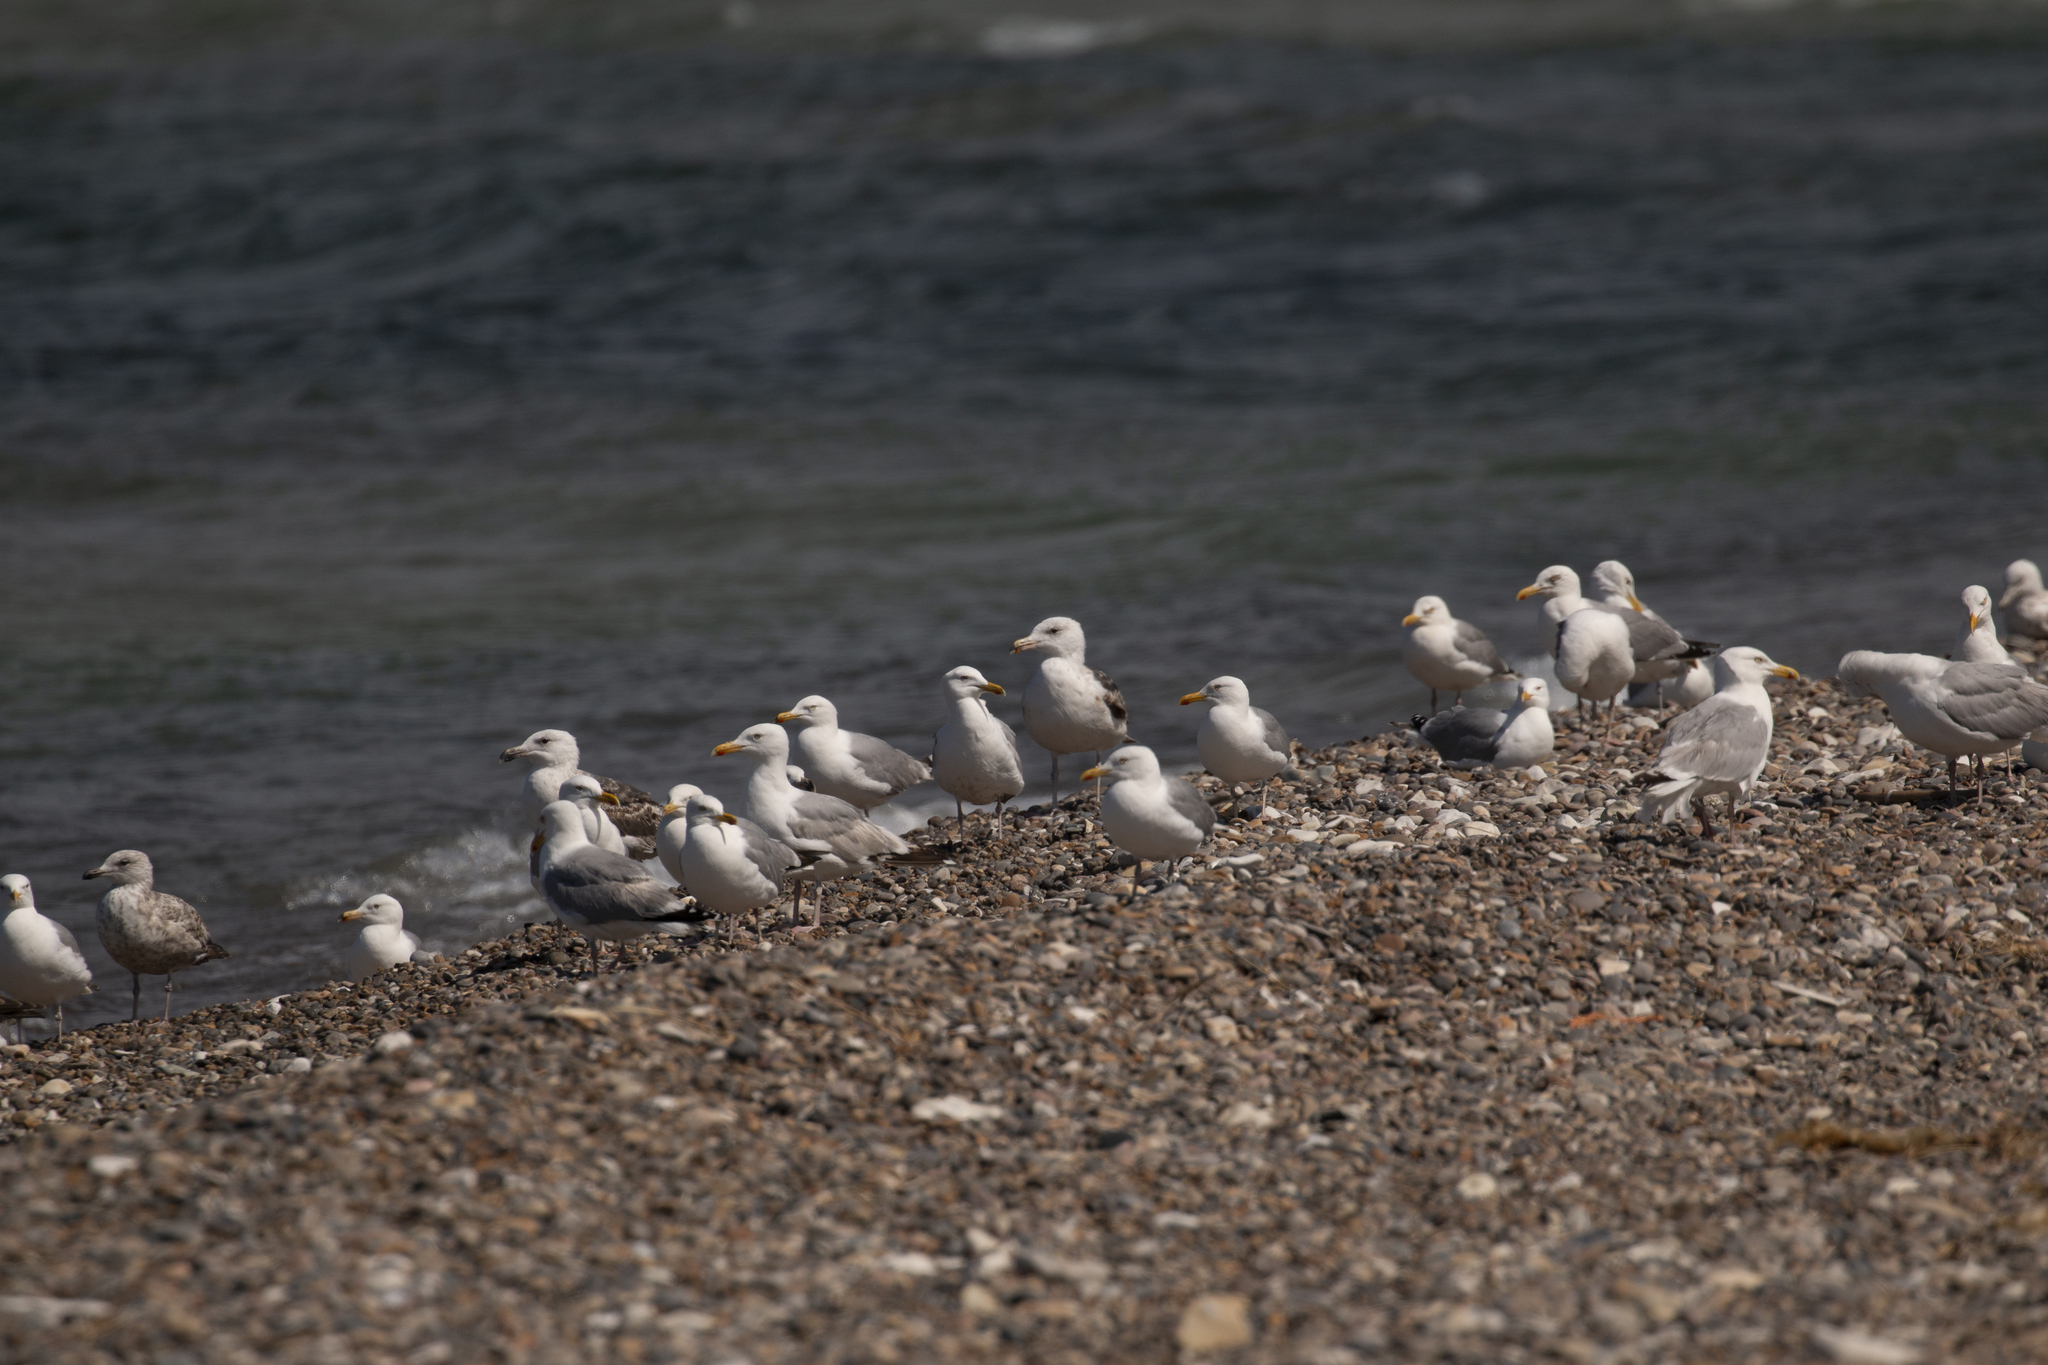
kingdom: Animalia
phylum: Chordata
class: Aves
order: Charadriiformes
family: Laridae
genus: Larus
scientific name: Larus argentatus
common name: Herring gull
